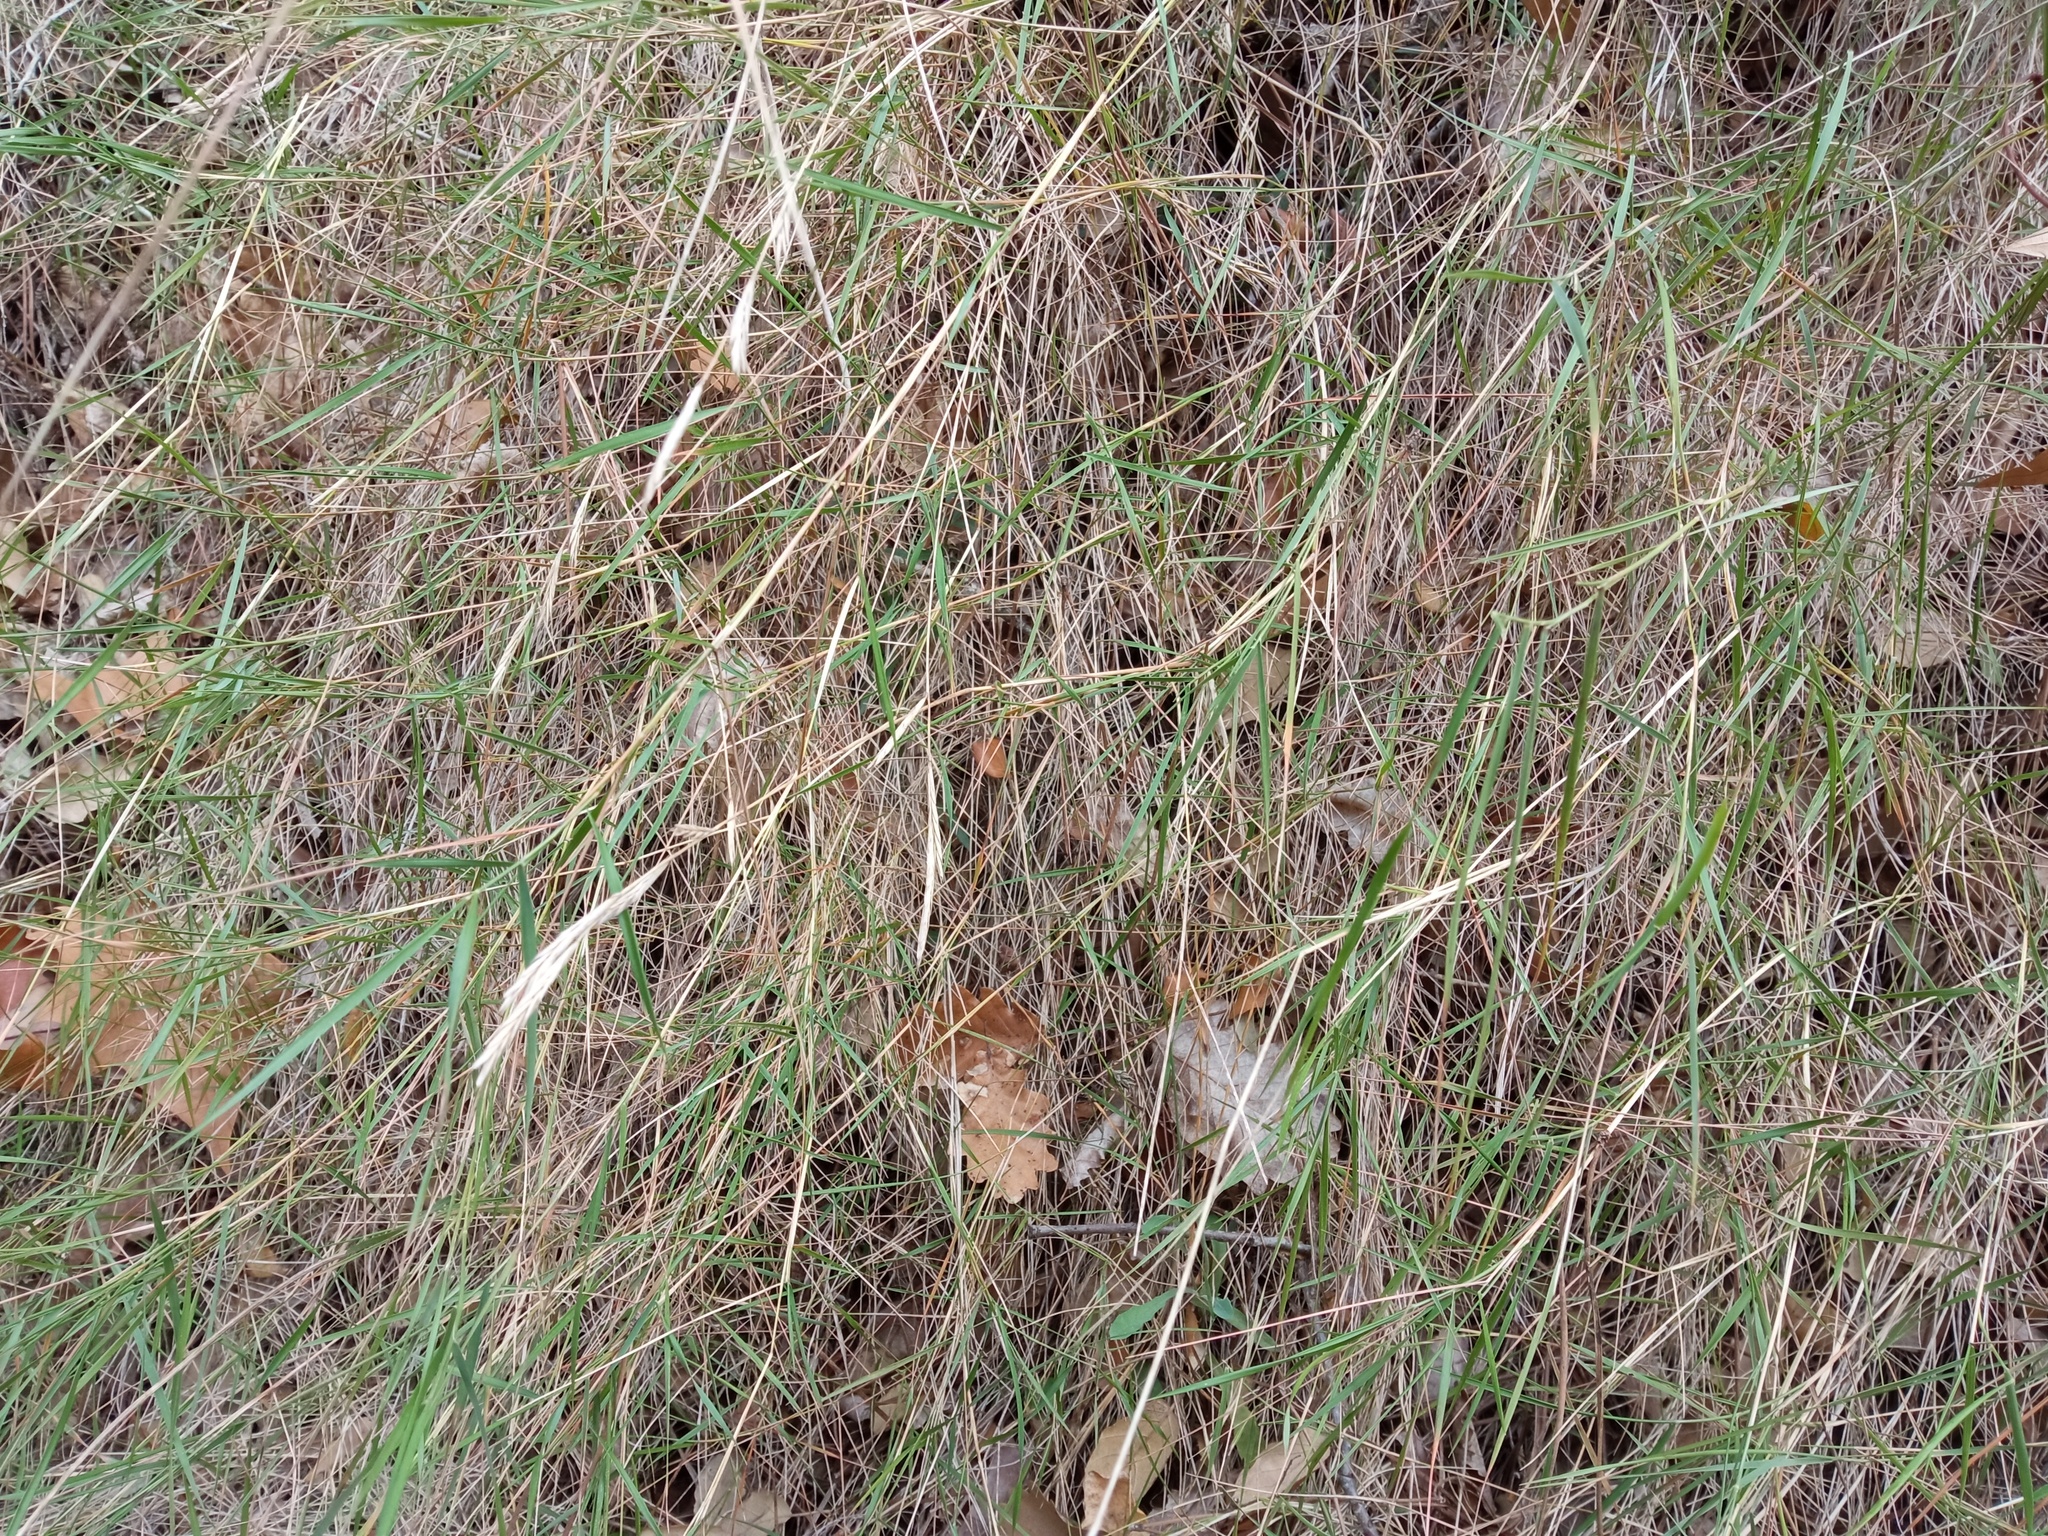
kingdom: Plantae
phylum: Tracheophyta
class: Liliopsida
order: Poales
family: Poaceae
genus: Brachypodium
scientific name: Brachypodium retusum
